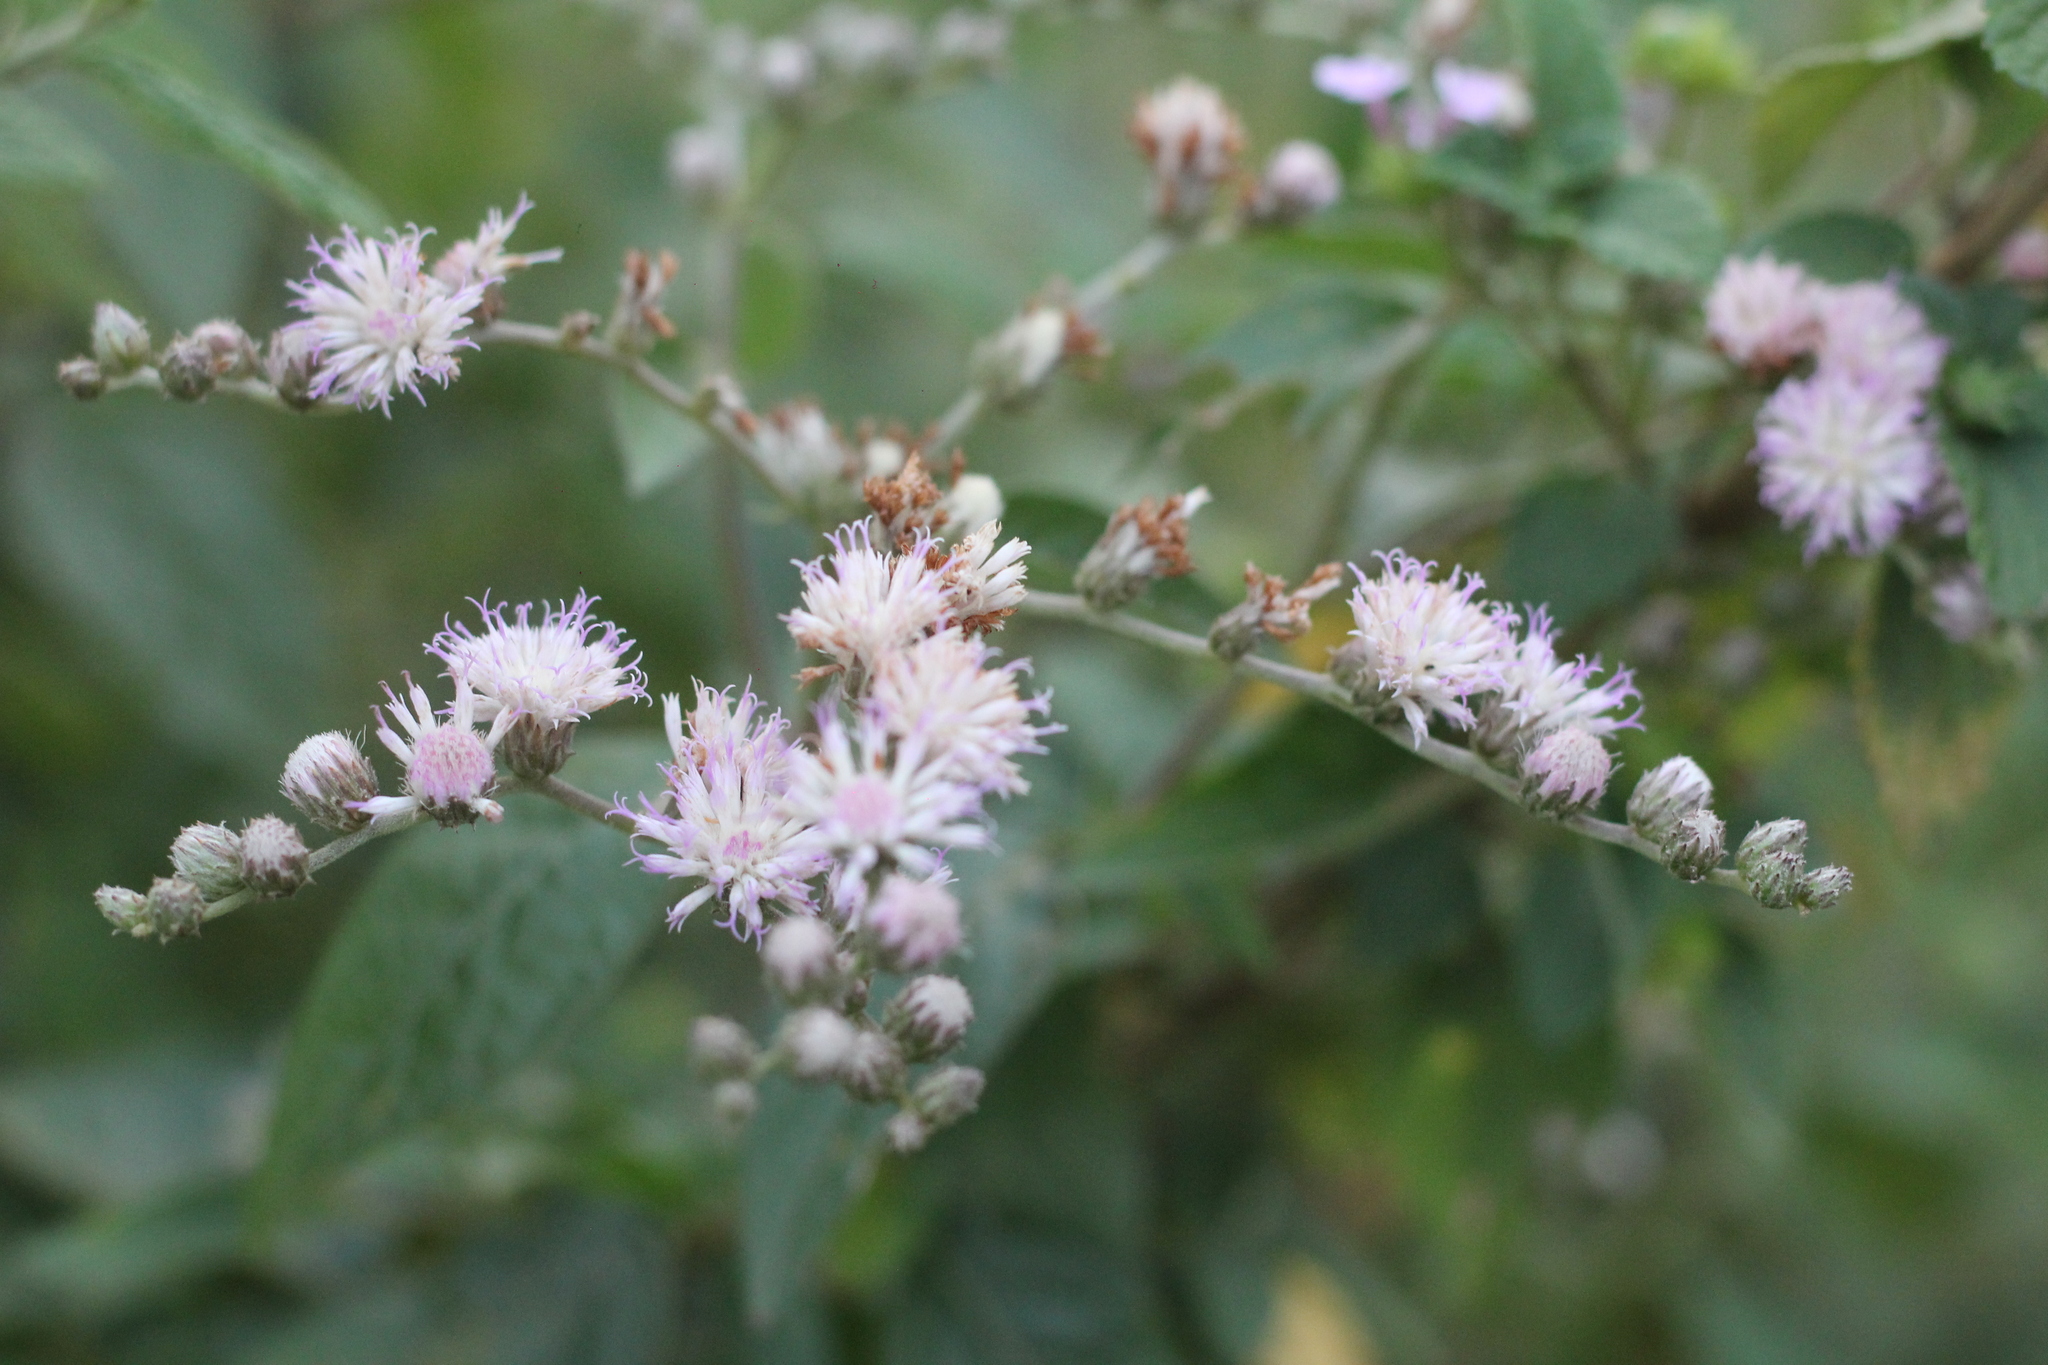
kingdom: Plantae
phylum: Tracheophyta
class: Magnoliopsida
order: Asterales
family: Asteraceae
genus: Cyrtocymura
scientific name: Cyrtocymura scorpioides
